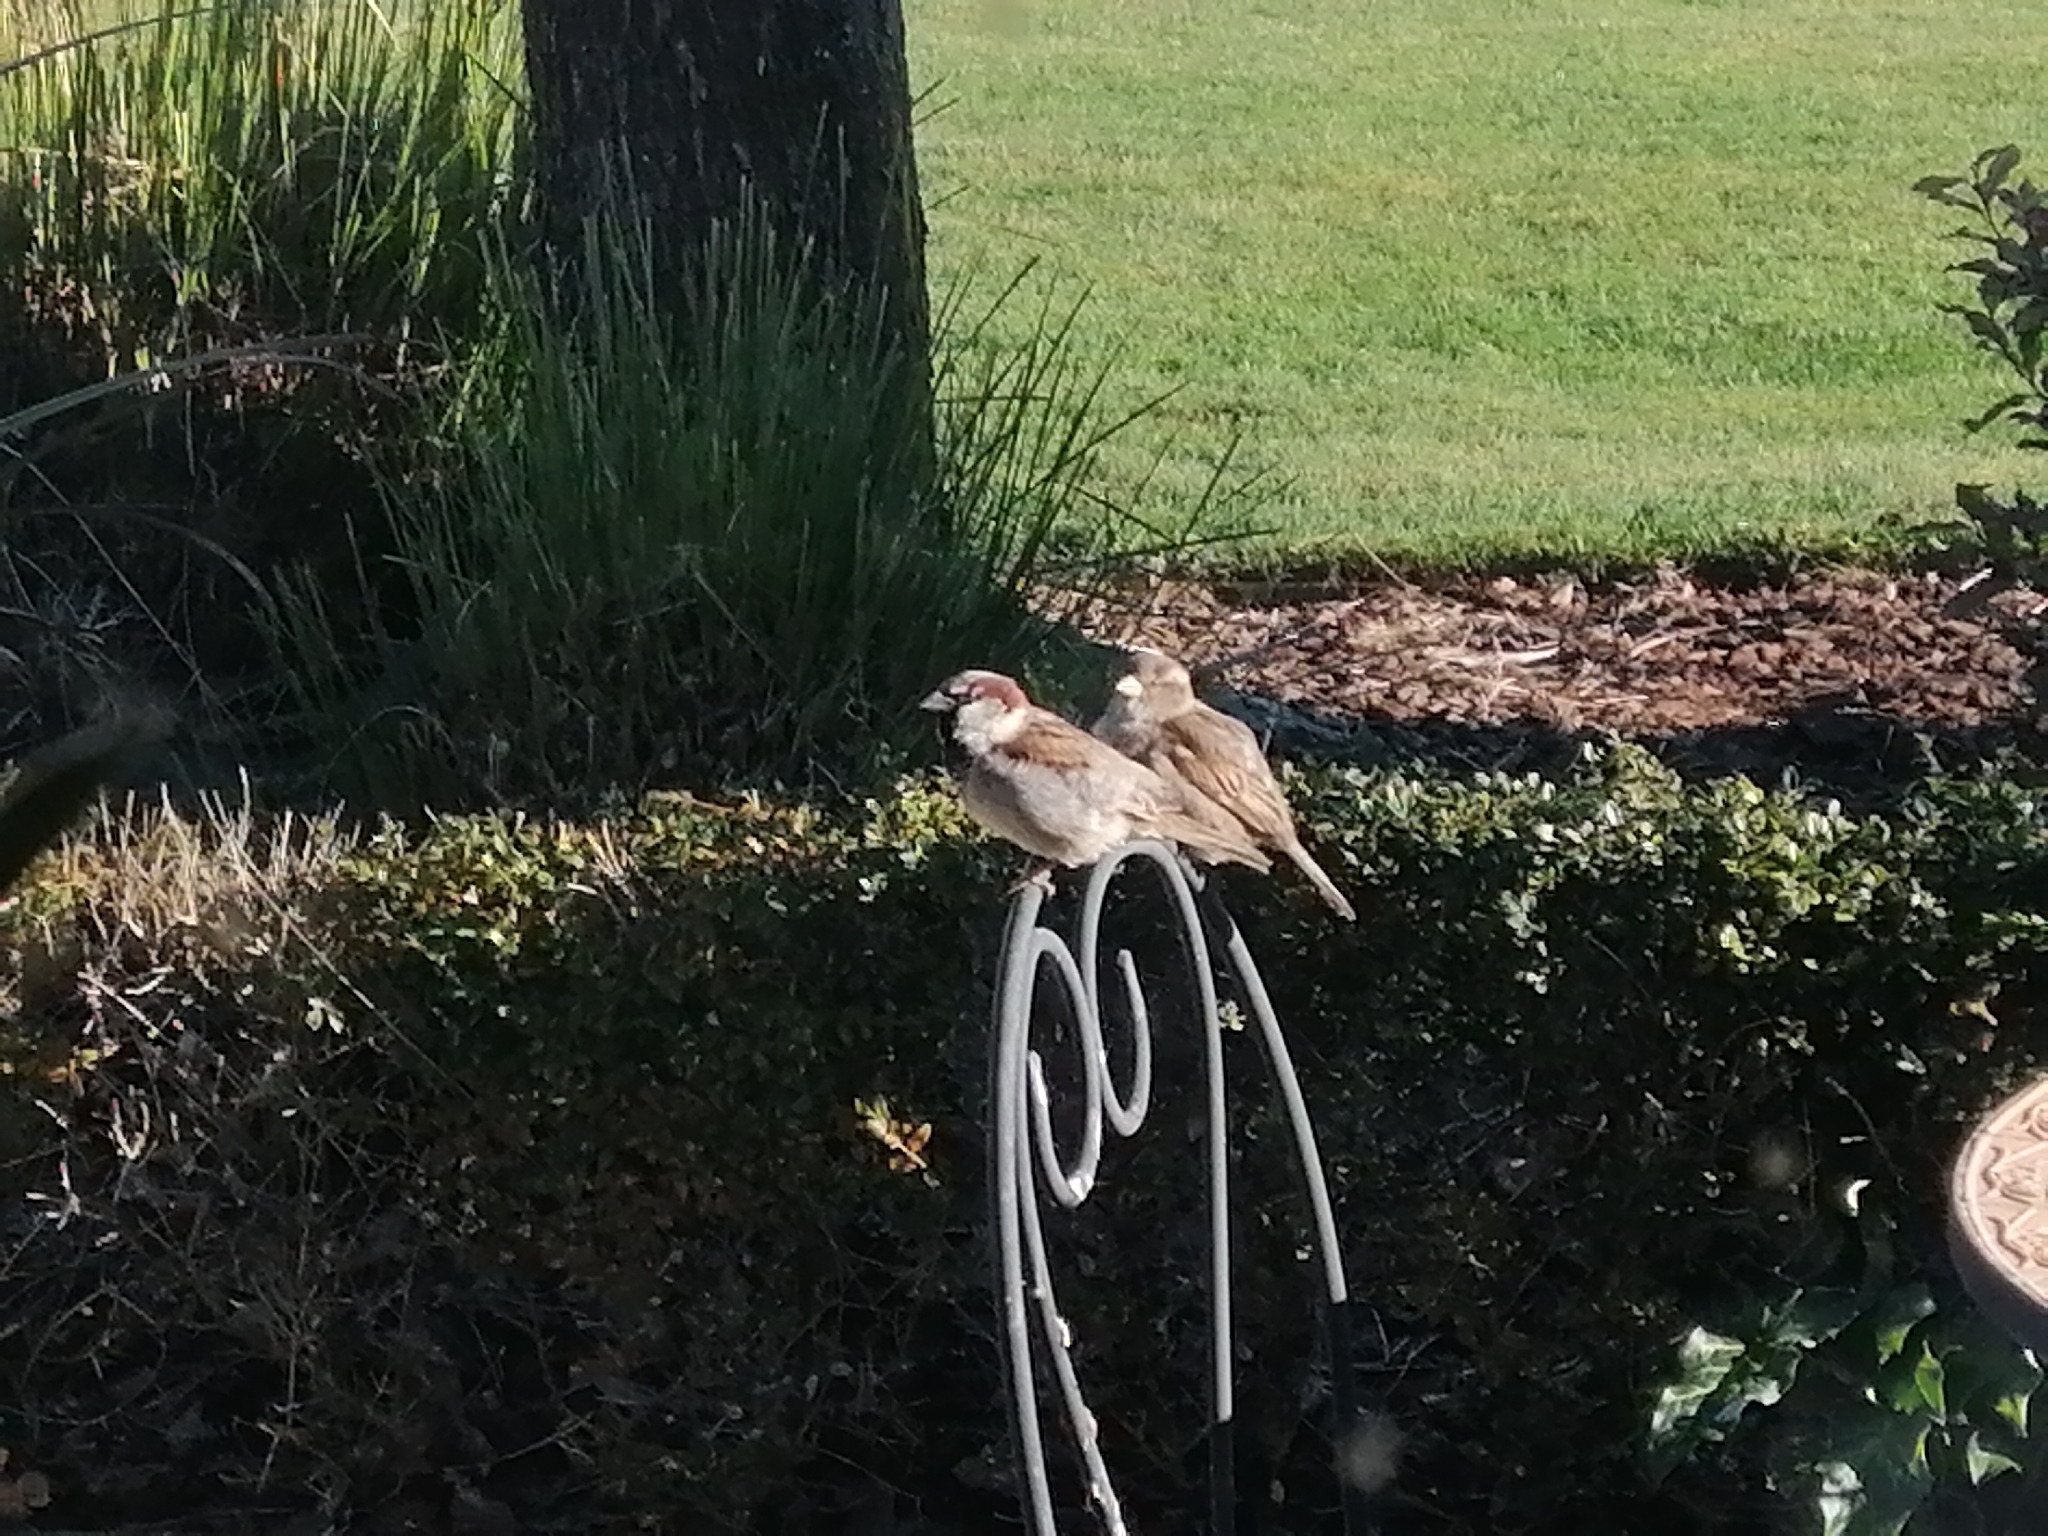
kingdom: Animalia
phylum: Chordata
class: Aves
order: Passeriformes
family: Passeridae
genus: Passer
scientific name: Passer domesticus
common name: House sparrow
